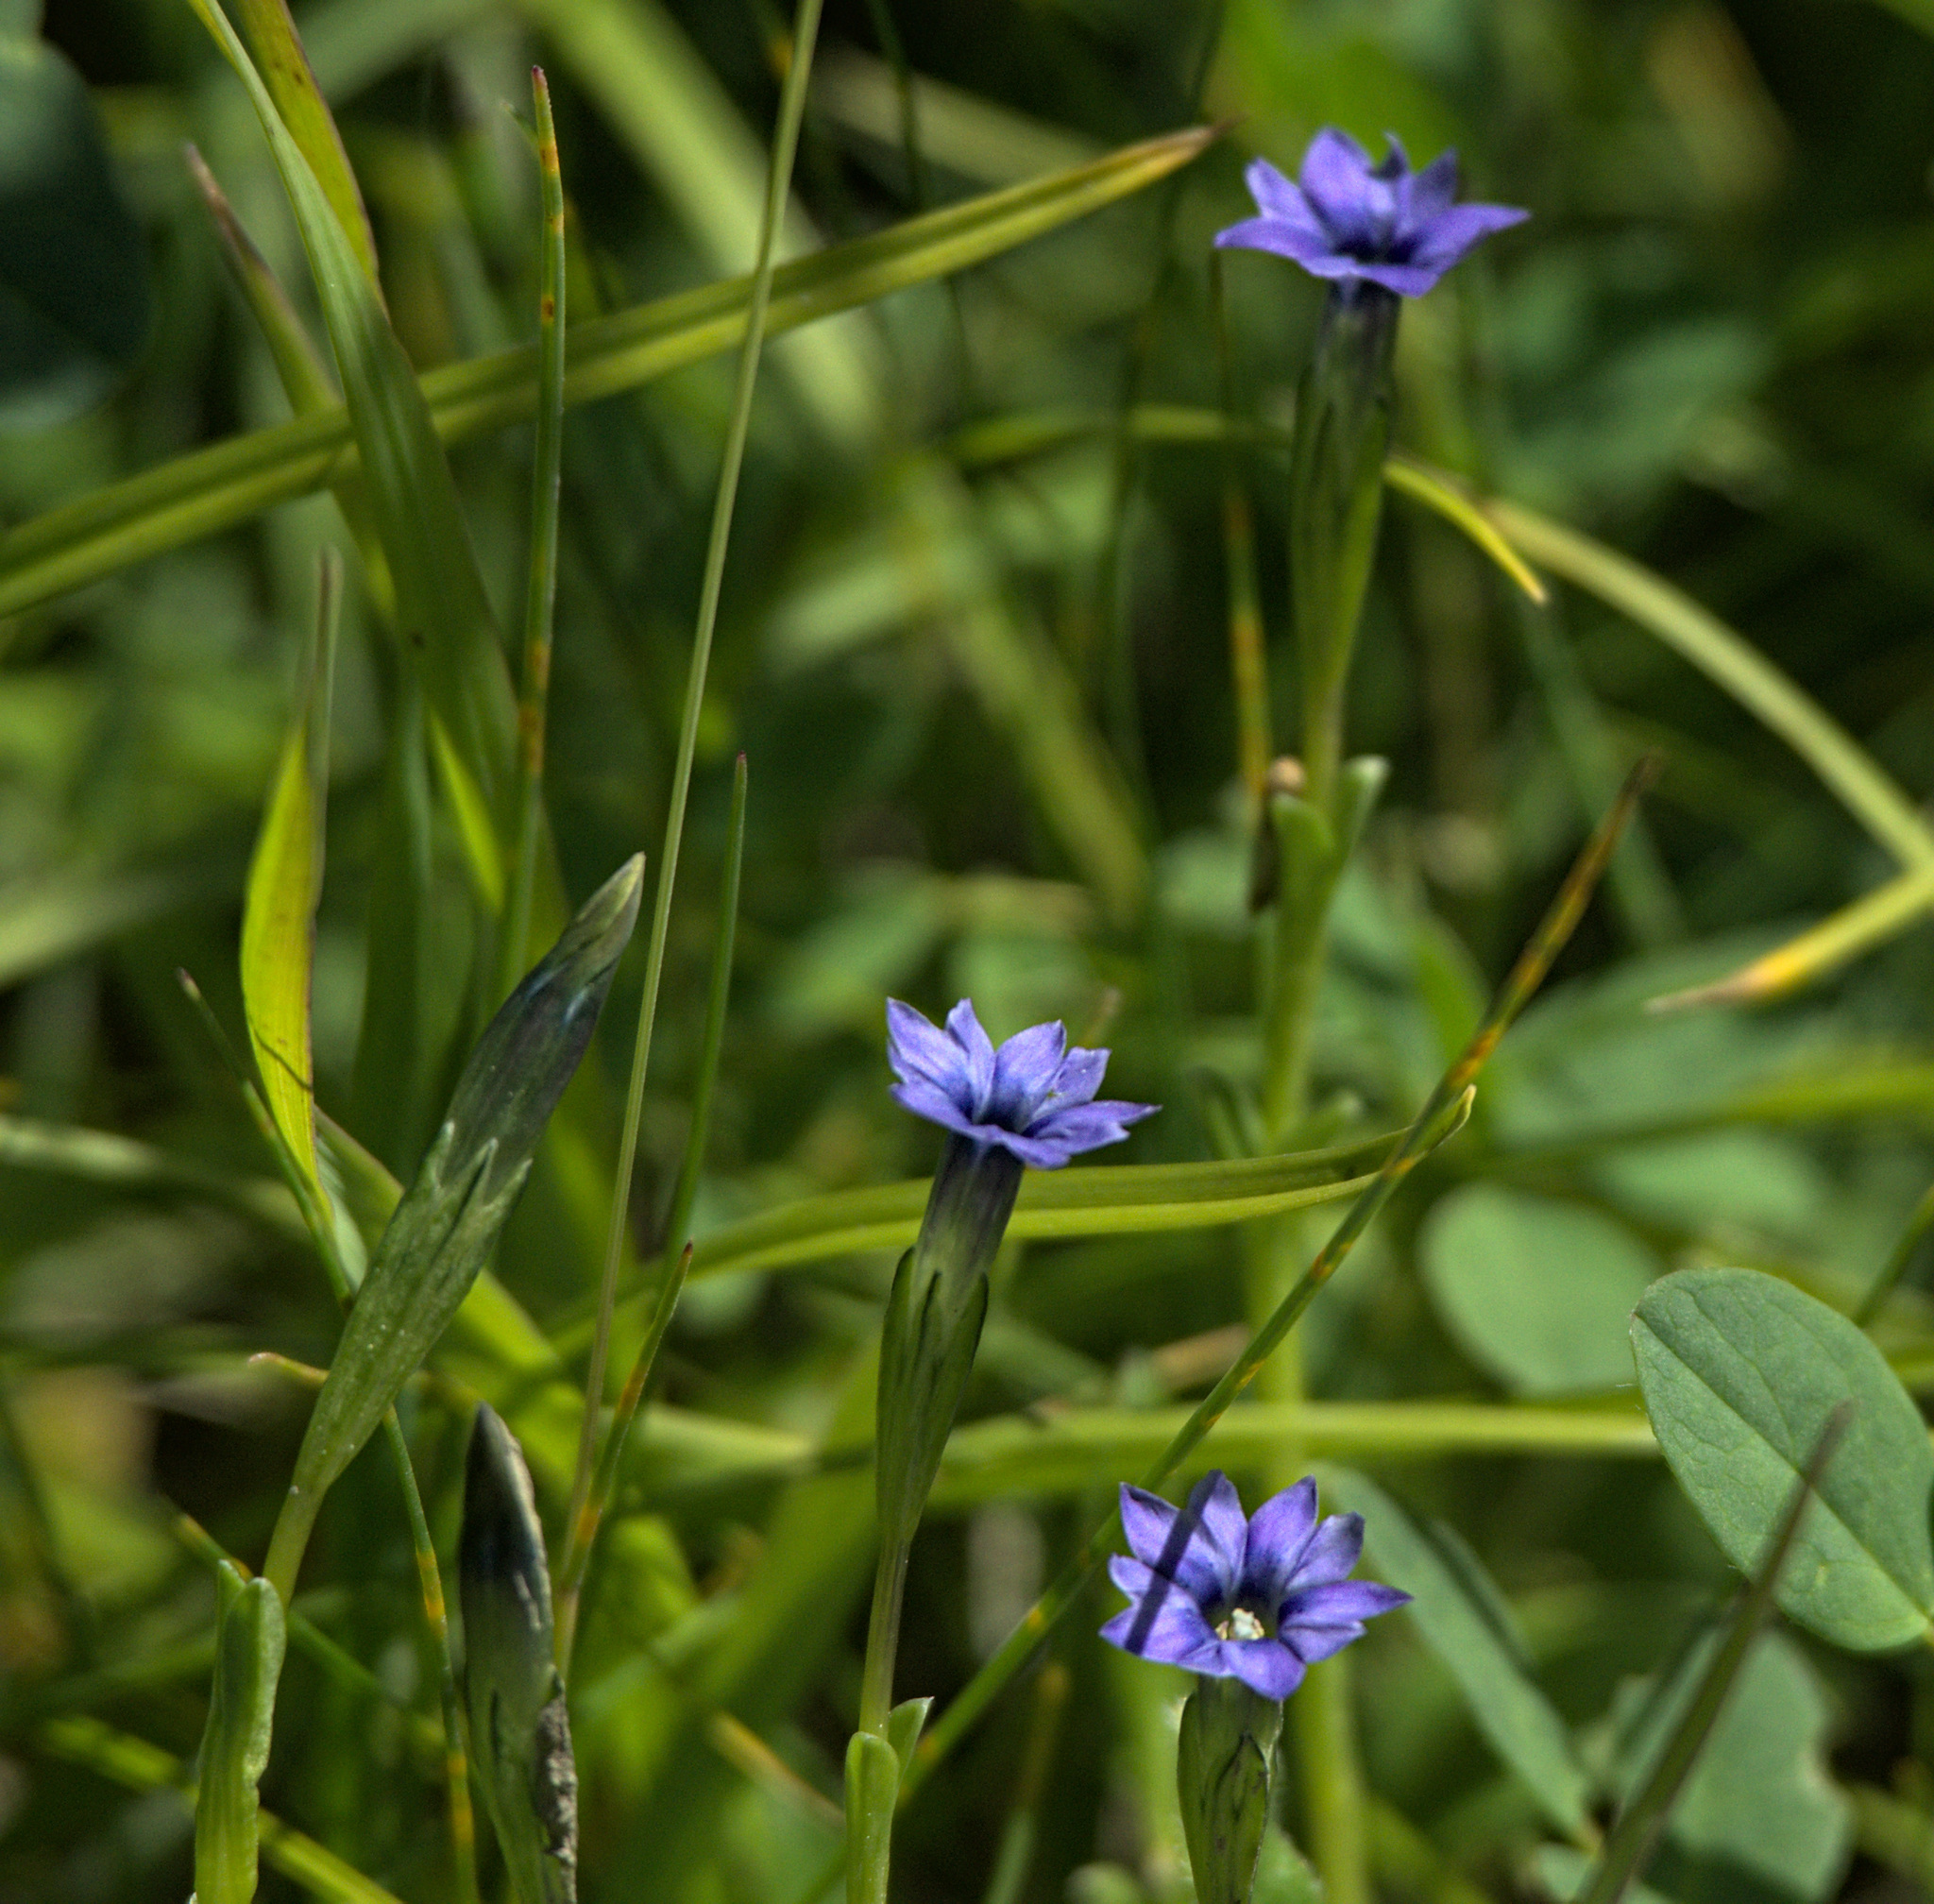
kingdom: Plantae
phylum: Tracheophyta
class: Magnoliopsida
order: Gentianales
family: Gentianaceae
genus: Gentiana
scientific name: Gentiana prostrata
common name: Moss gentian
